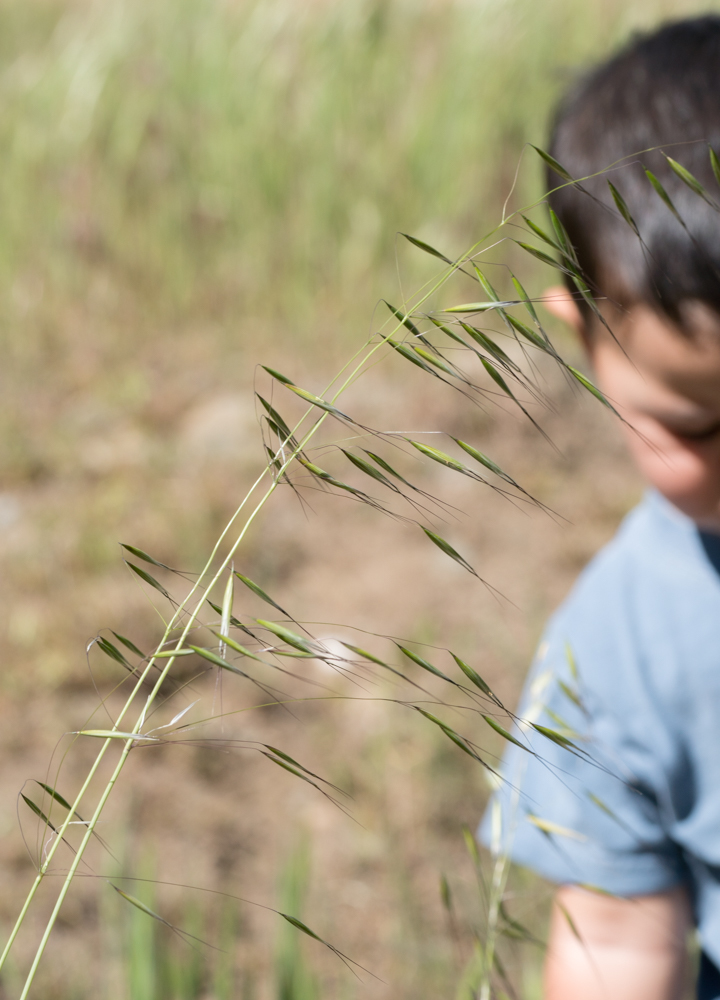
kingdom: Plantae
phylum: Tracheophyta
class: Liliopsida
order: Poales
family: Poaceae
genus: Avena
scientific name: Avena barbata
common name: Slender oat
